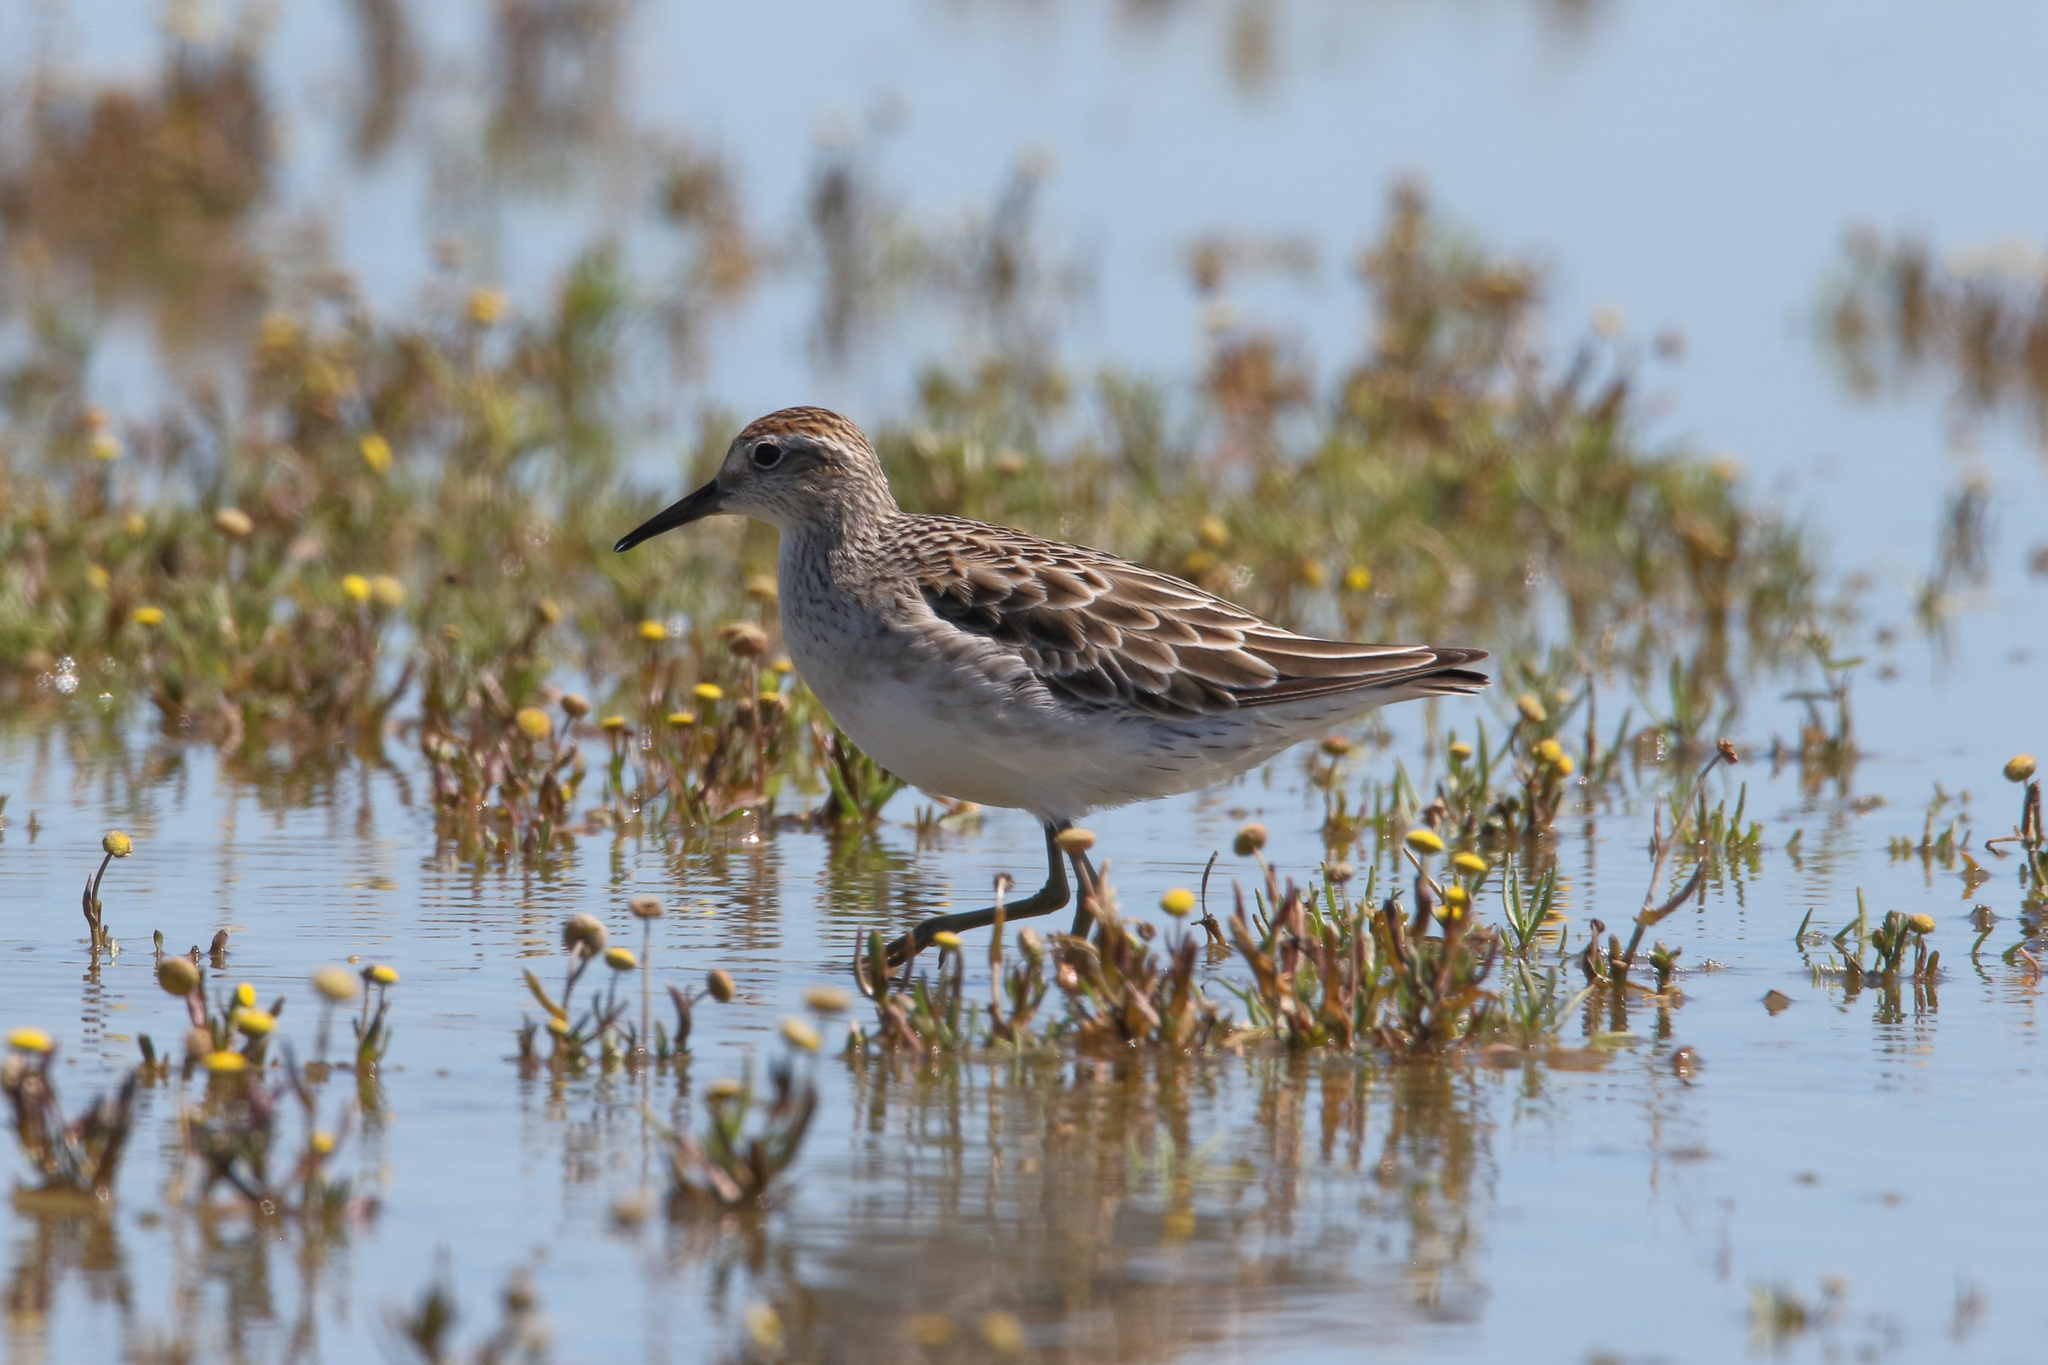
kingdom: Animalia
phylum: Chordata
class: Aves
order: Charadriiformes
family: Scolopacidae
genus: Calidris
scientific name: Calidris acuminata
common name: Sharp-tailed sandpiper
